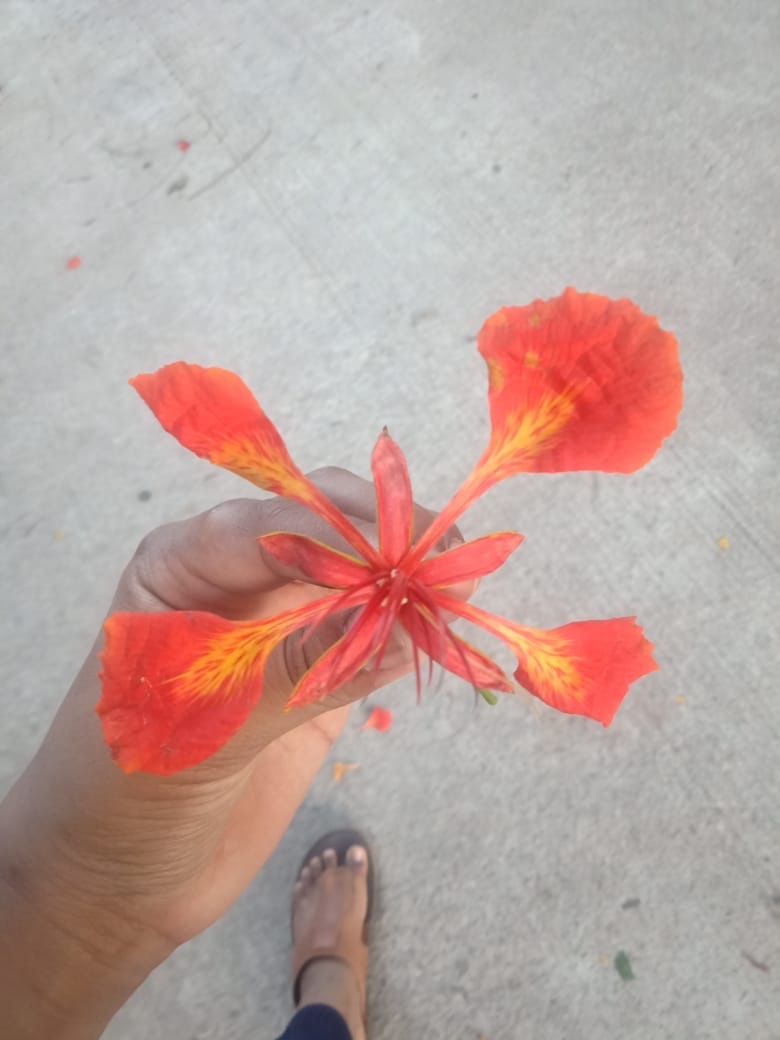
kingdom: Plantae
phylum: Tracheophyta
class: Magnoliopsida
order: Fabales
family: Fabaceae
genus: Delonix
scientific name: Delonix regia
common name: Royal poinciana
